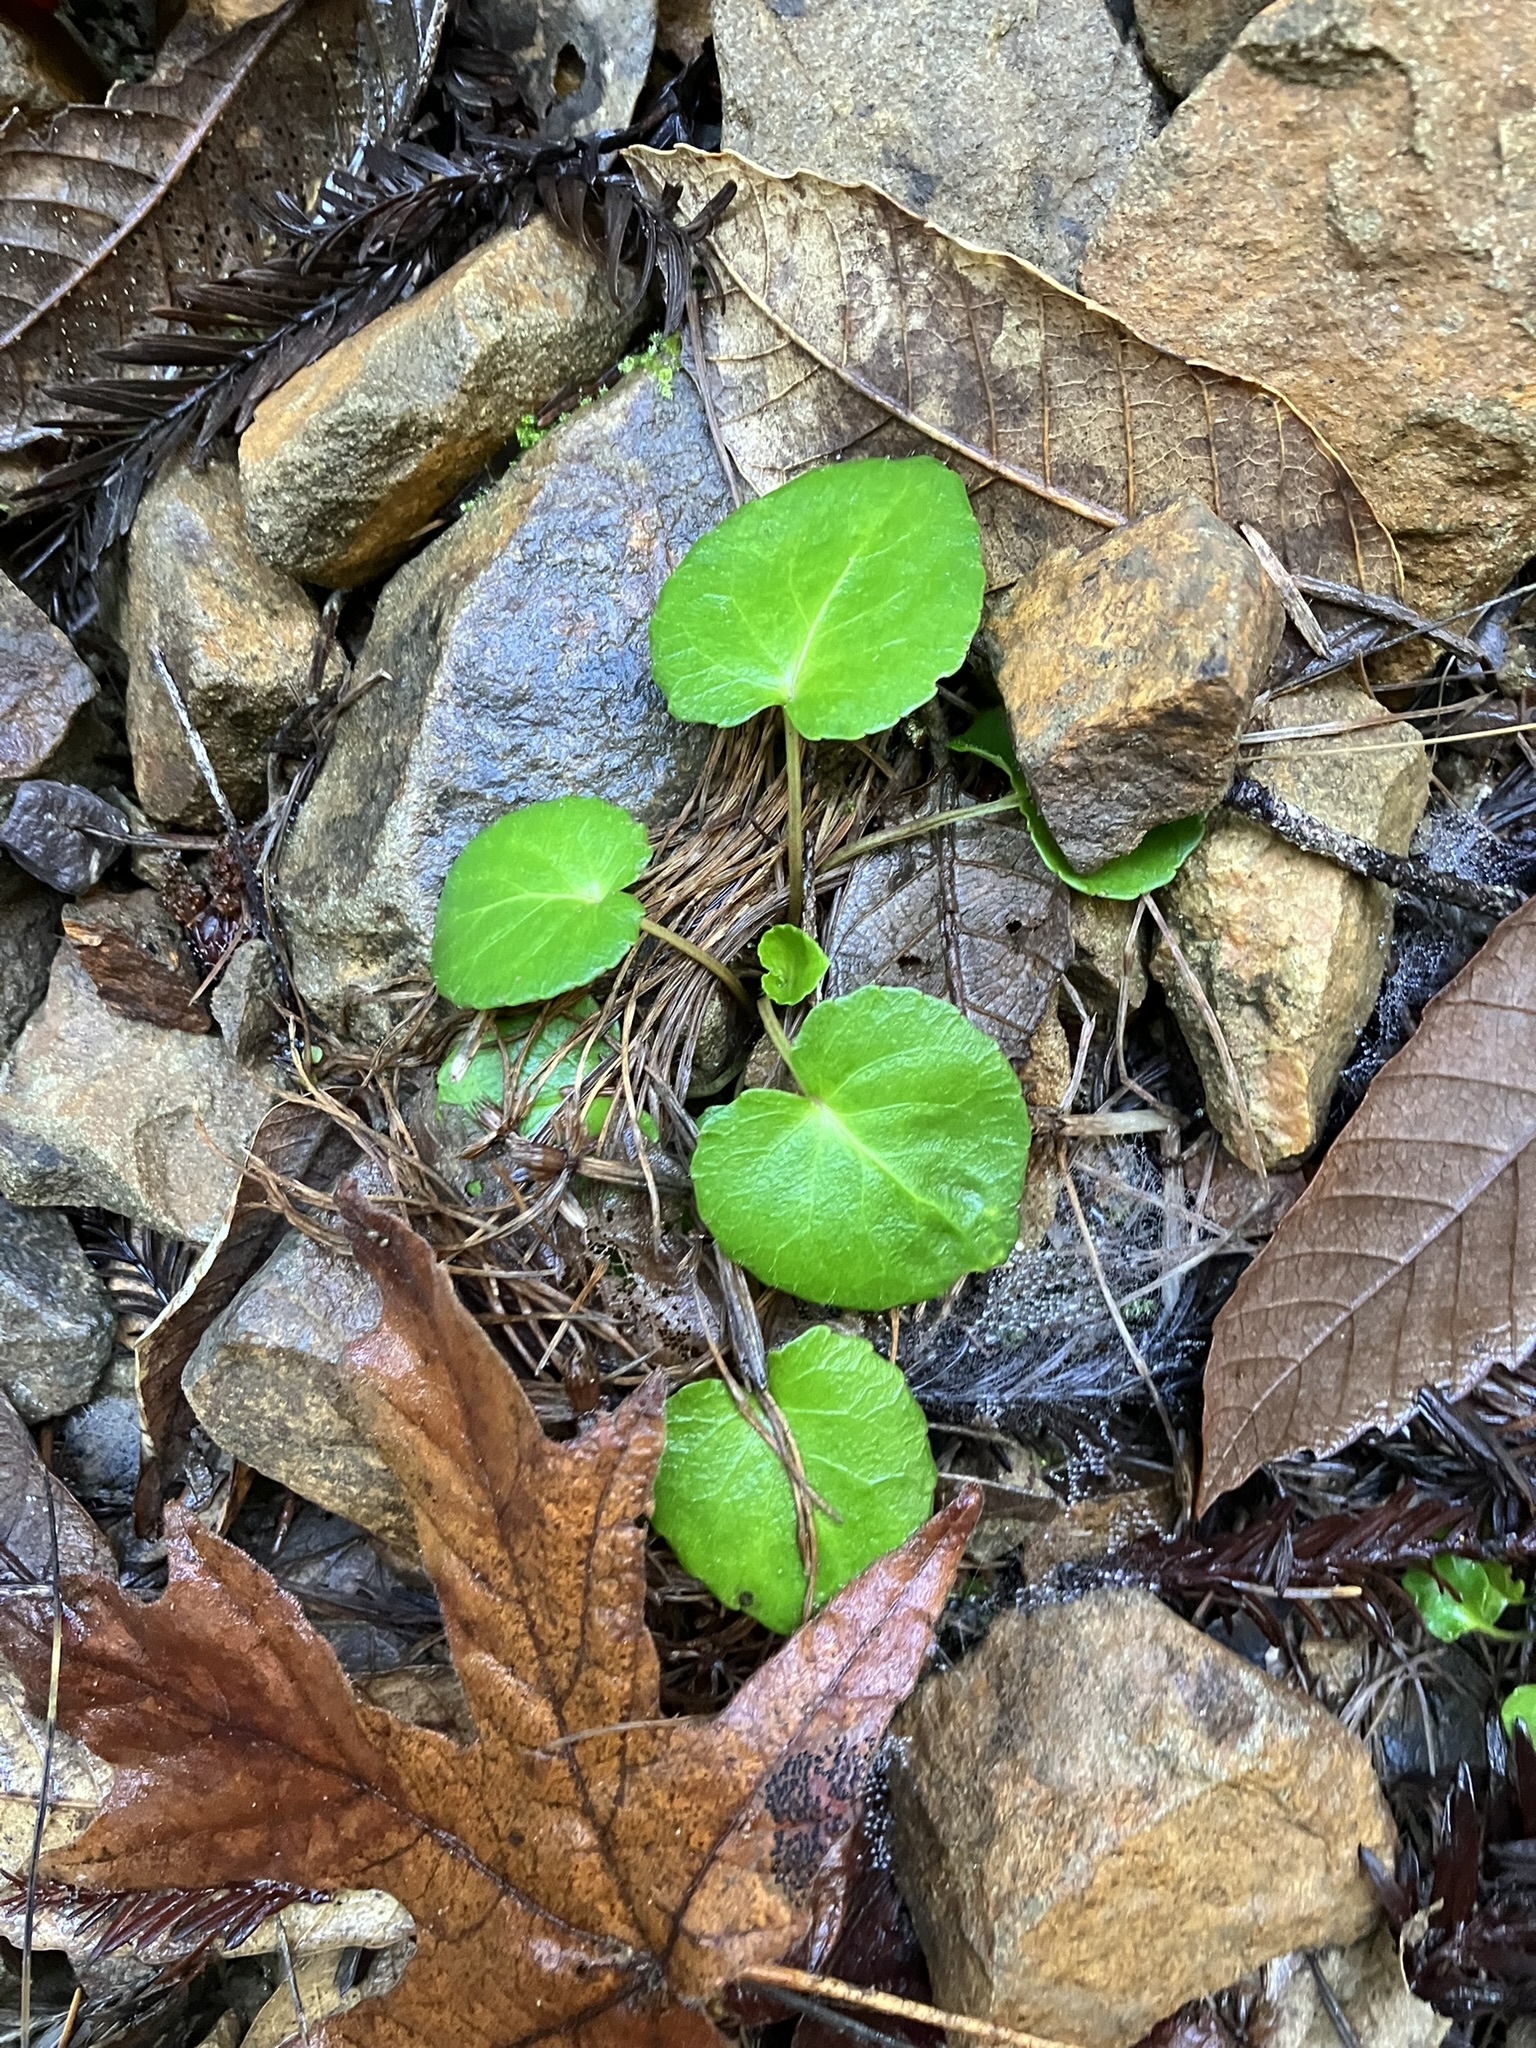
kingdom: Plantae
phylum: Tracheophyta
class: Magnoliopsida
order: Malpighiales
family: Violaceae
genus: Viola
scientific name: Viola sempervirens
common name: Evergreen violet
